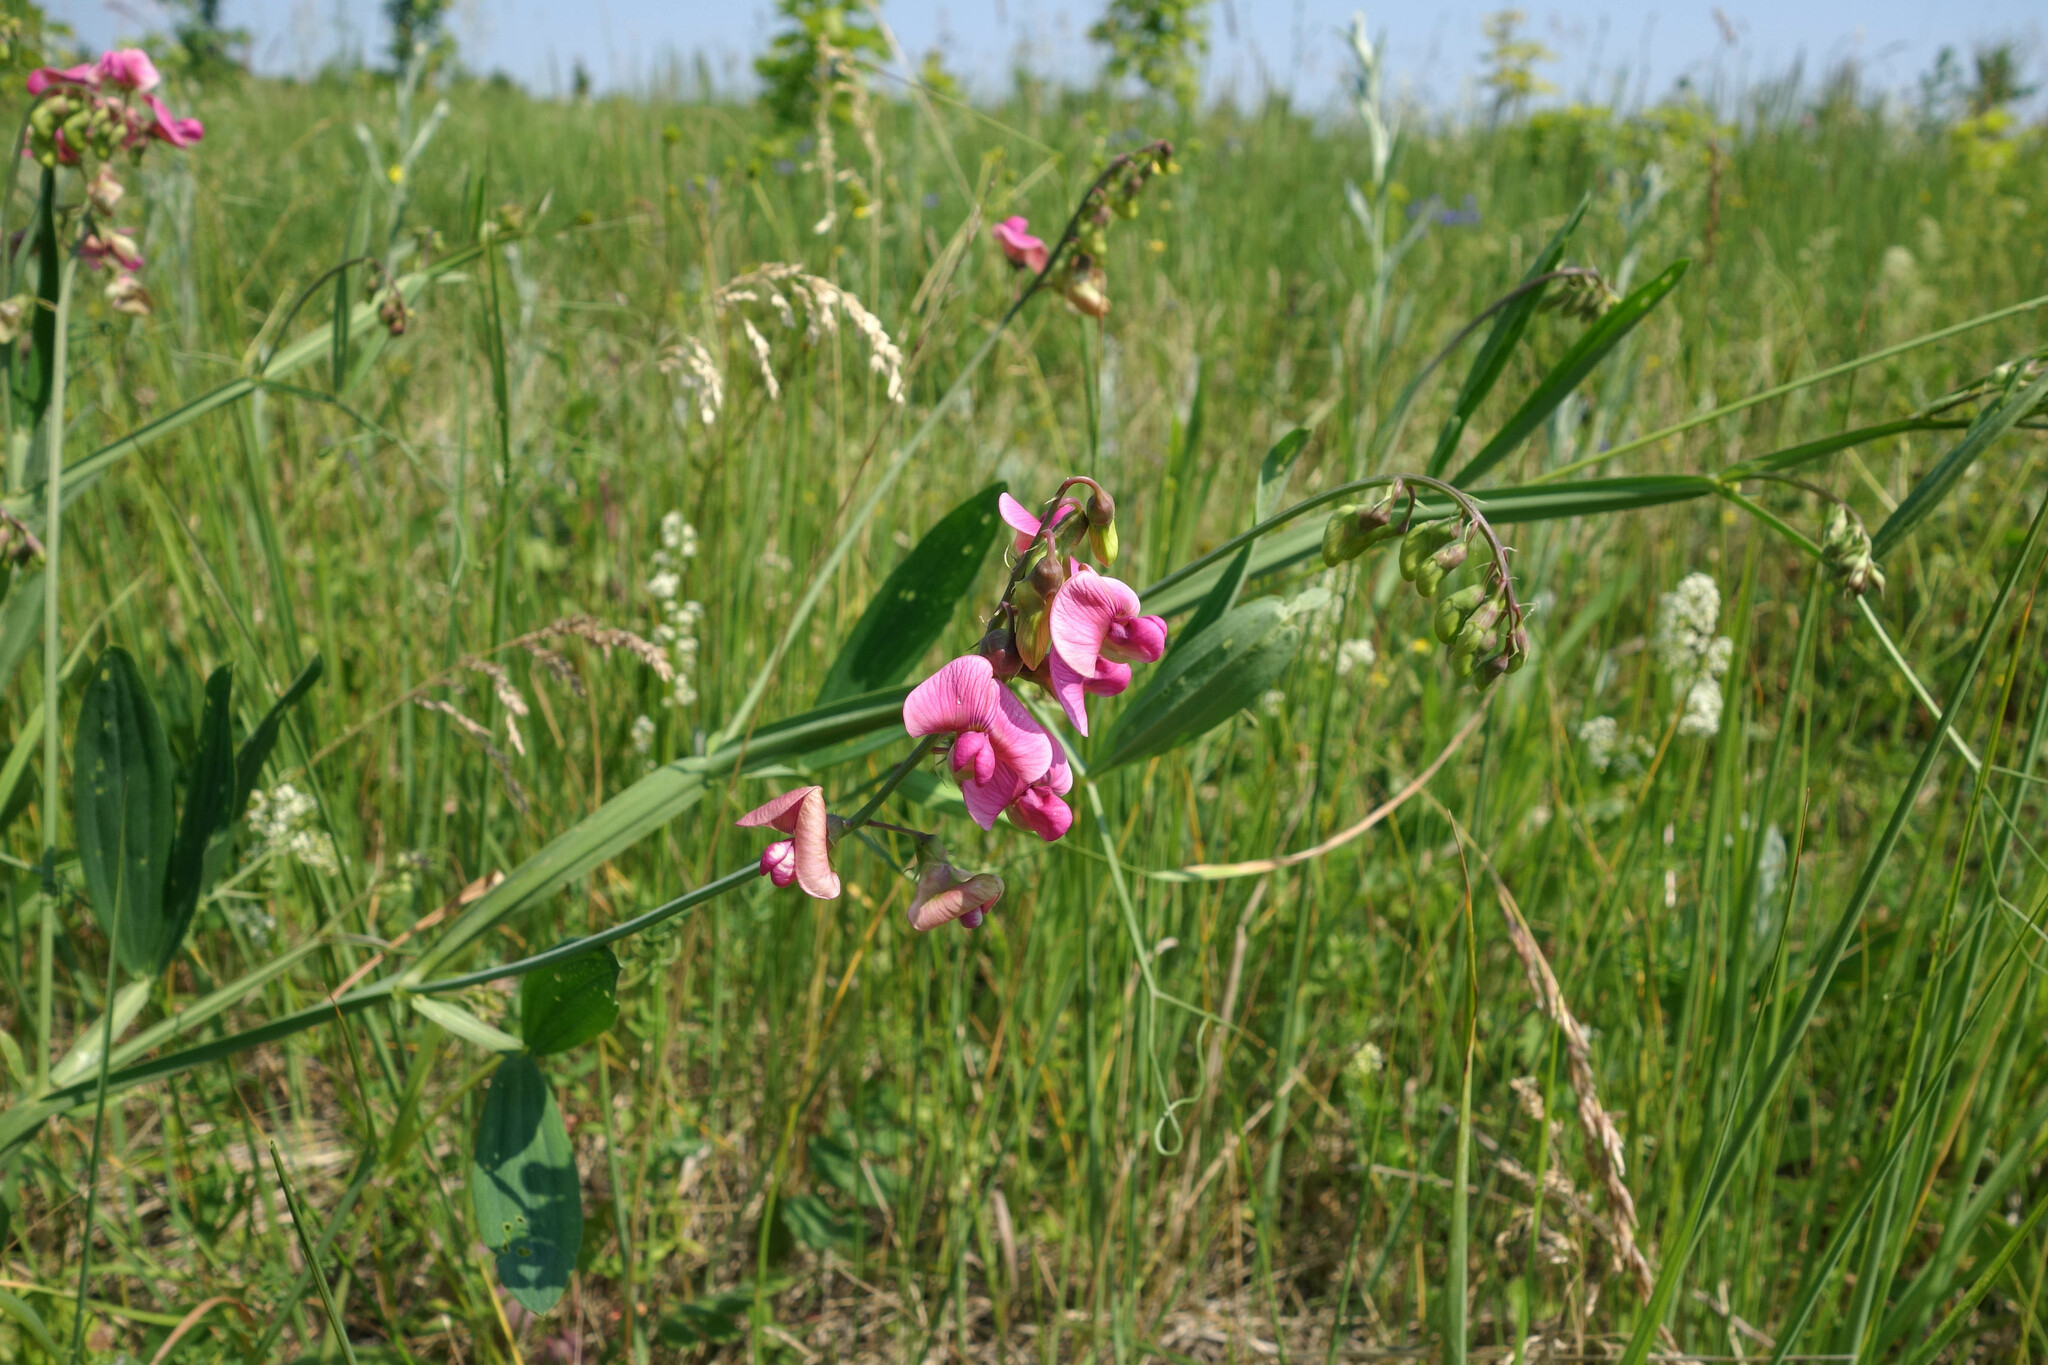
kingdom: Plantae
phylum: Tracheophyta
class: Magnoliopsida
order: Fabales
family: Fabaceae
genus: Lathyrus
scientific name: Lathyrus sylvestris
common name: Flat pea
